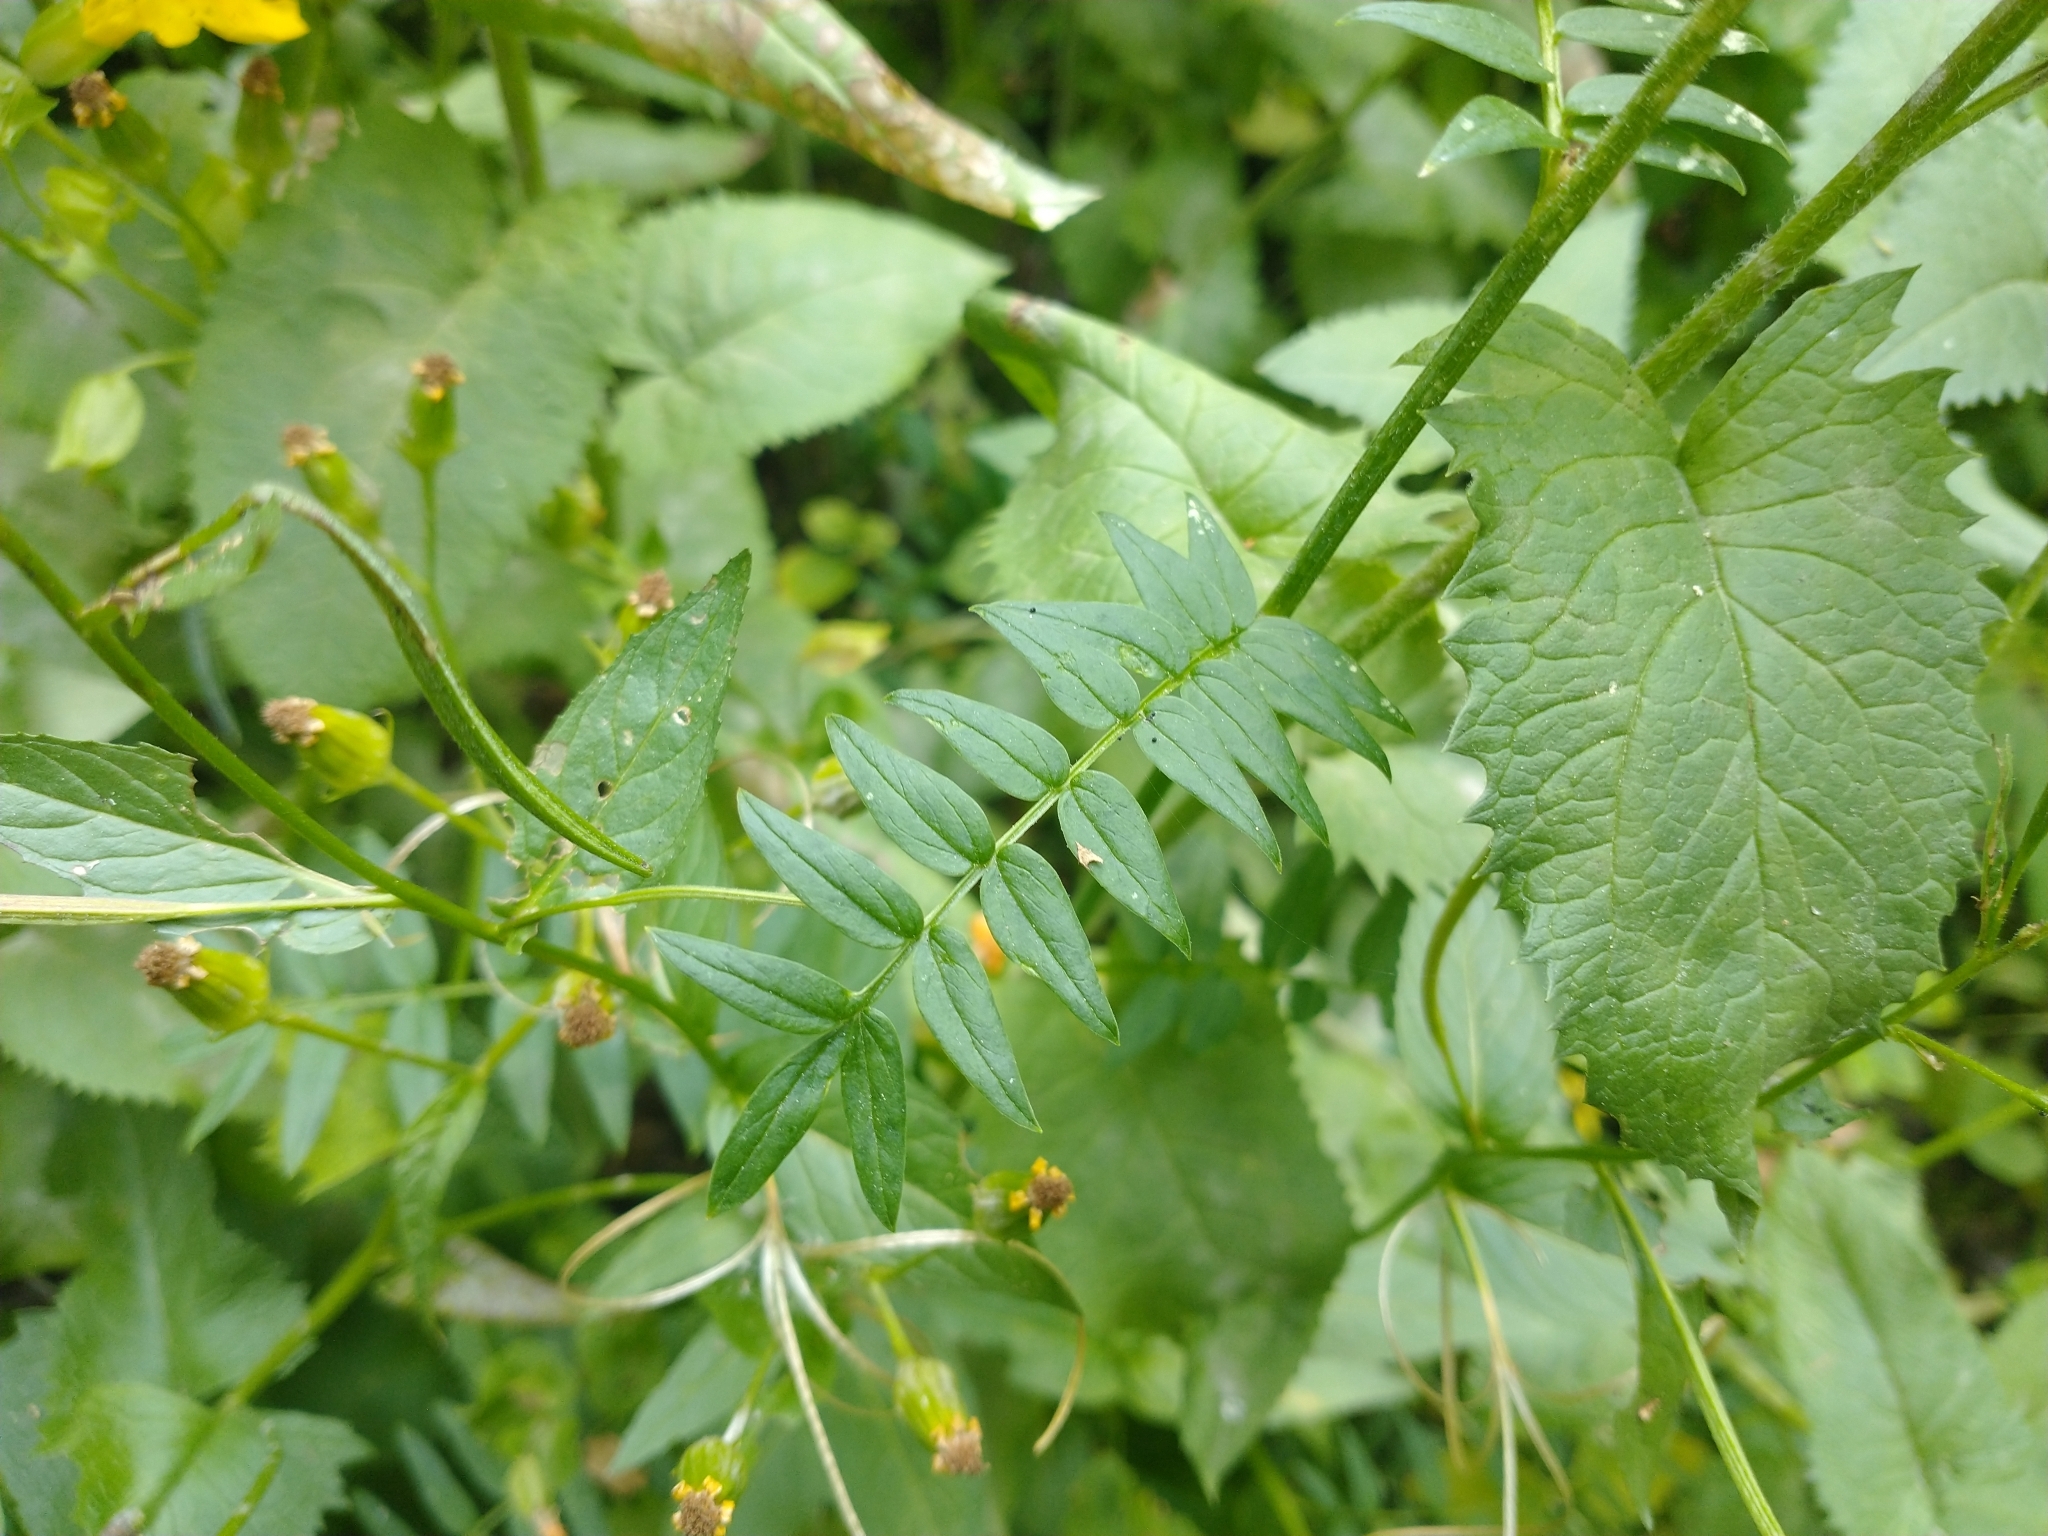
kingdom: Plantae
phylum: Tracheophyta
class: Magnoliopsida
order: Ericales
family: Polemoniaceae
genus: Polemonium
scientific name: Polemonium occidentale
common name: Western jacob's-ladder
